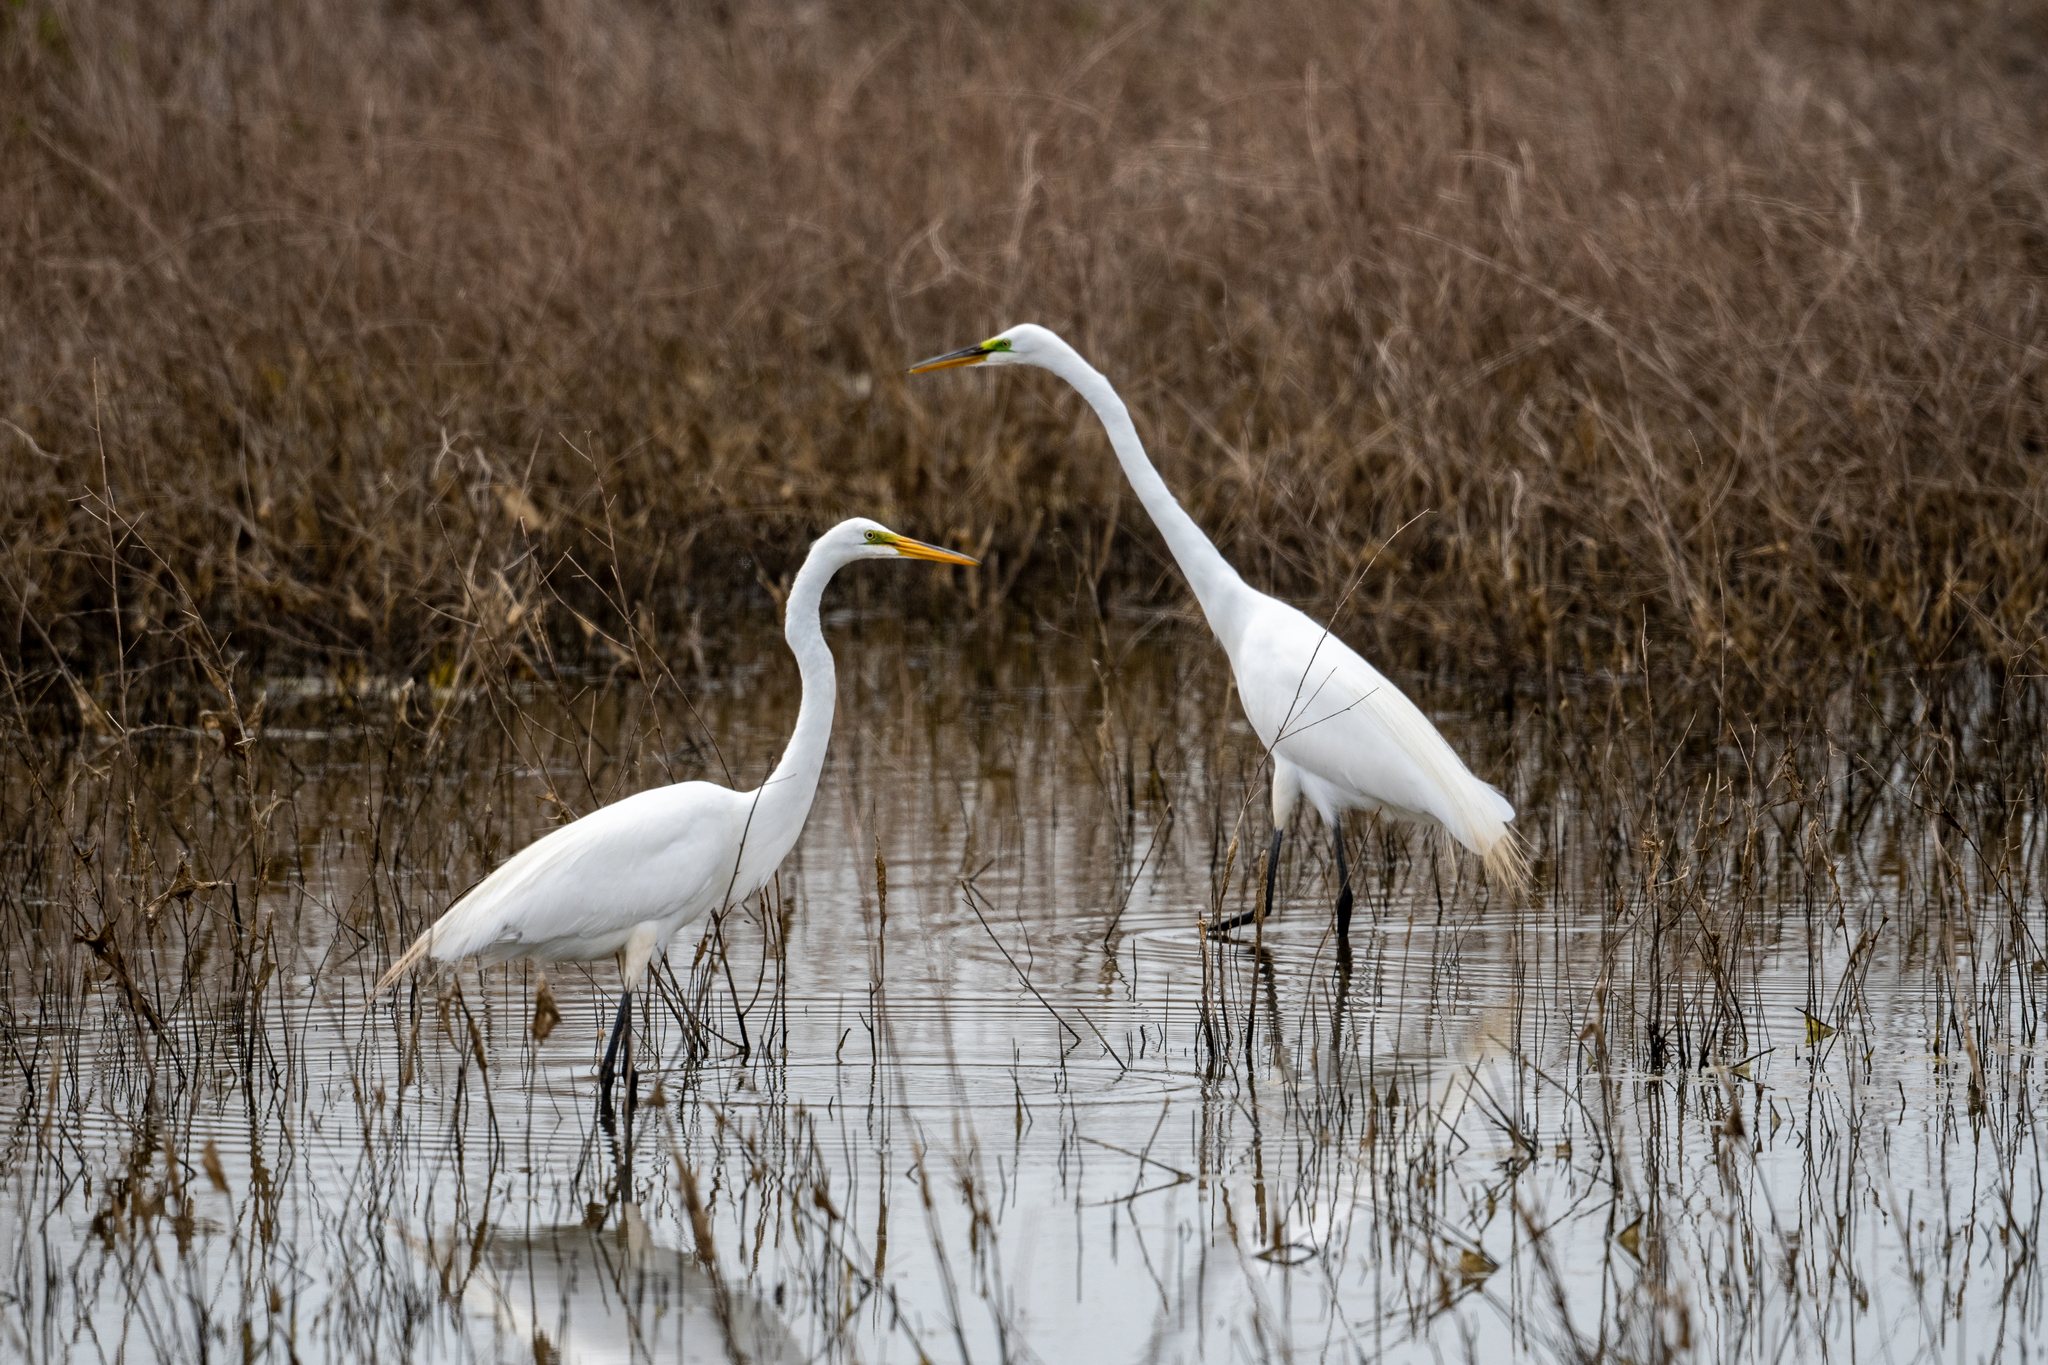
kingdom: Animalia
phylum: Chordata
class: Aves
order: Pelecaniformes
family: Ardeidae
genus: Ardea
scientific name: Ardea alba
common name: Great egret
